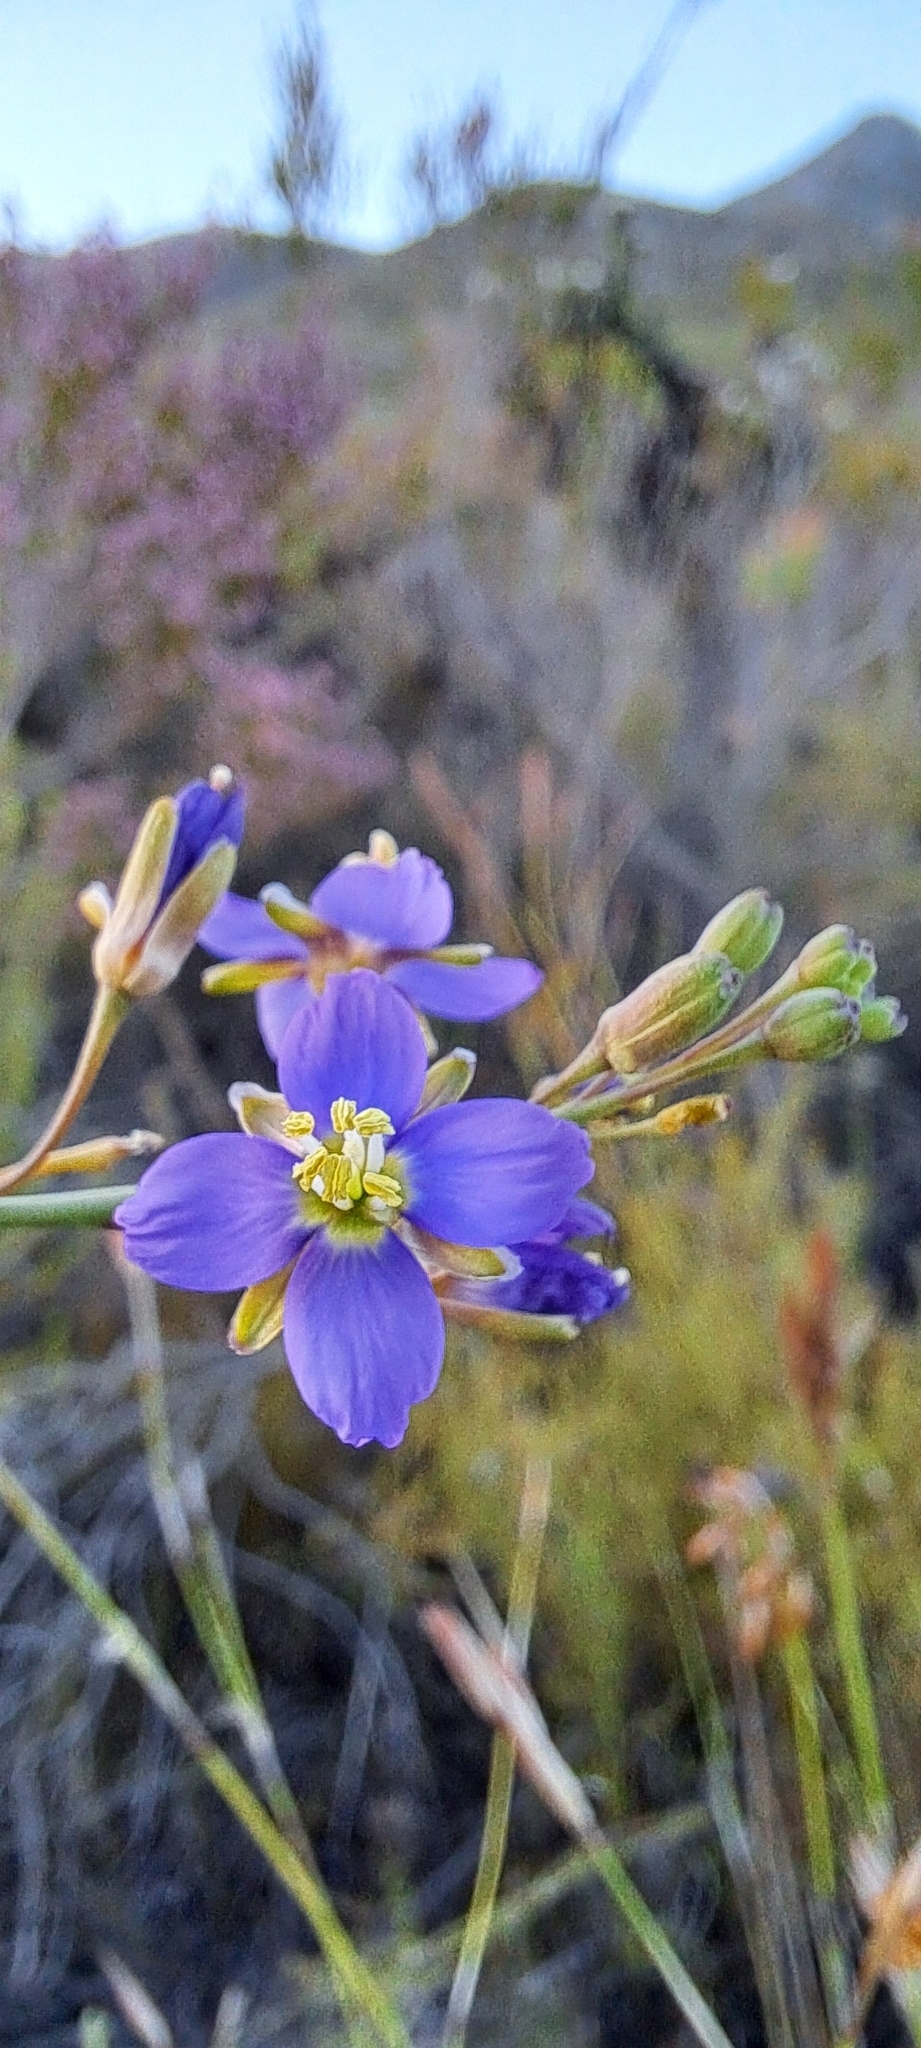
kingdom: Plantae
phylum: Tracheophyta
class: Magnoliopsida
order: Brassicales
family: Brassicaceae
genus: Heliophila
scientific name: Heliophila linearis
